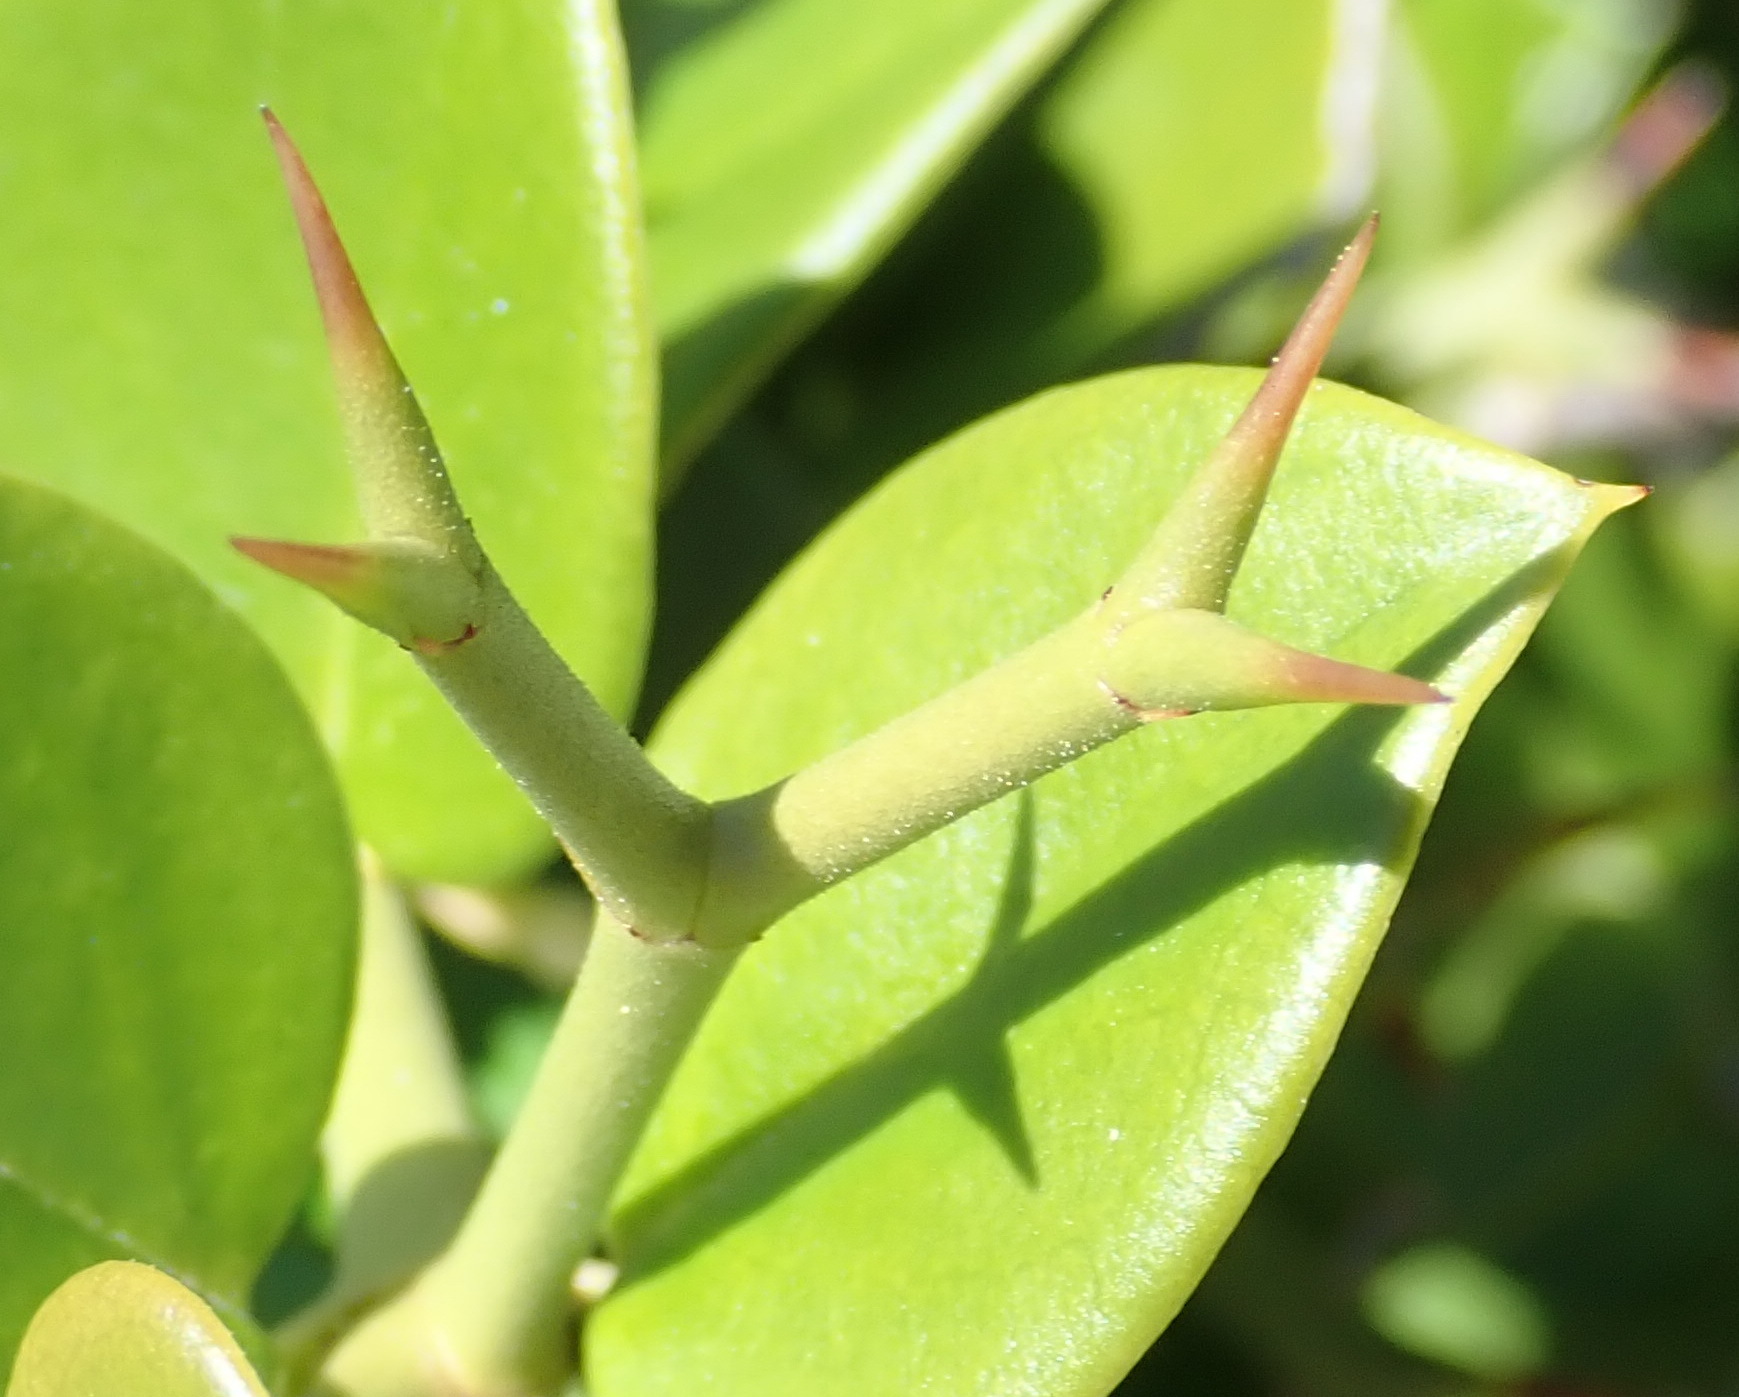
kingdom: Plantae
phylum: Tracheophyta
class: Magnoliopsida
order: Gentianales
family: Apocynaceae
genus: Carissa
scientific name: Carissa bispinosa
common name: Forest num-num
